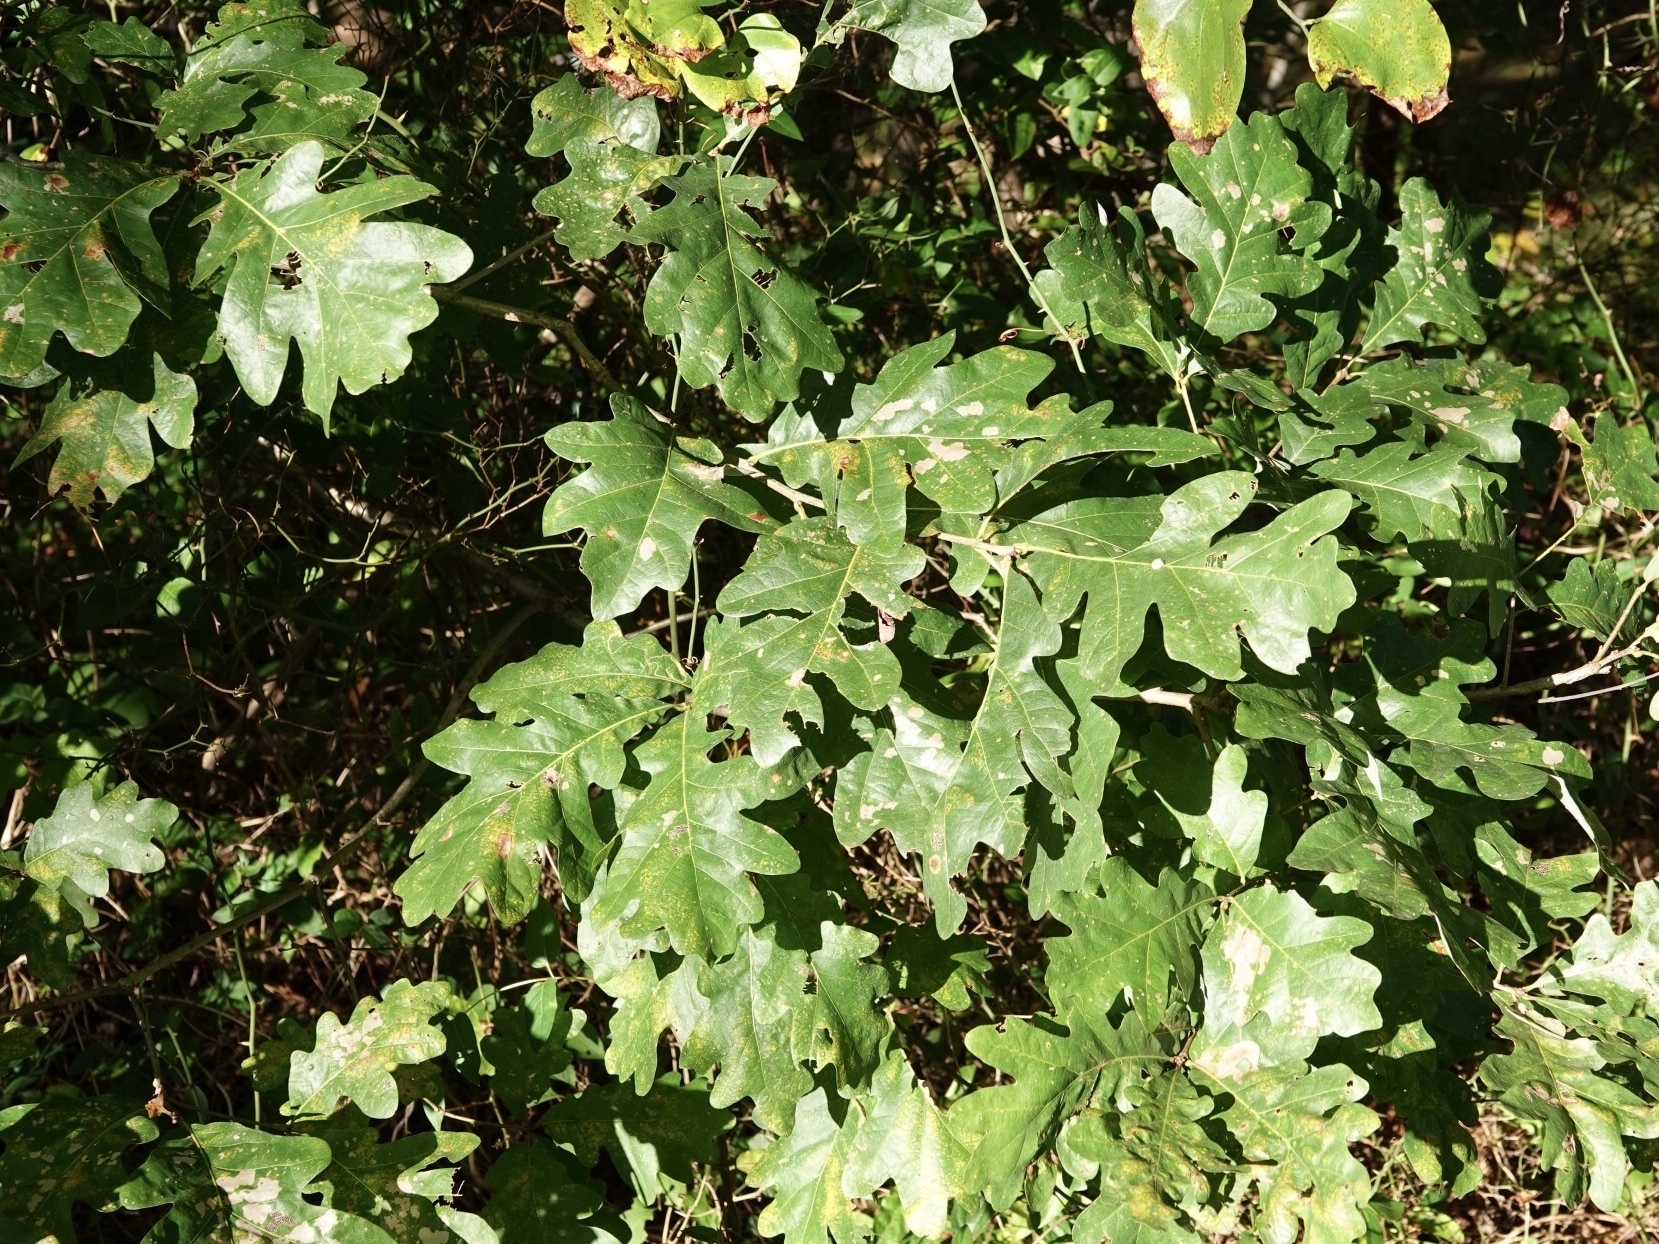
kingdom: Plantae
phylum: Tracheophyta
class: Magnoliopsida
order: Fagales
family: Fagaceae
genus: Quercus
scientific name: Quercus alba
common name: White oak
